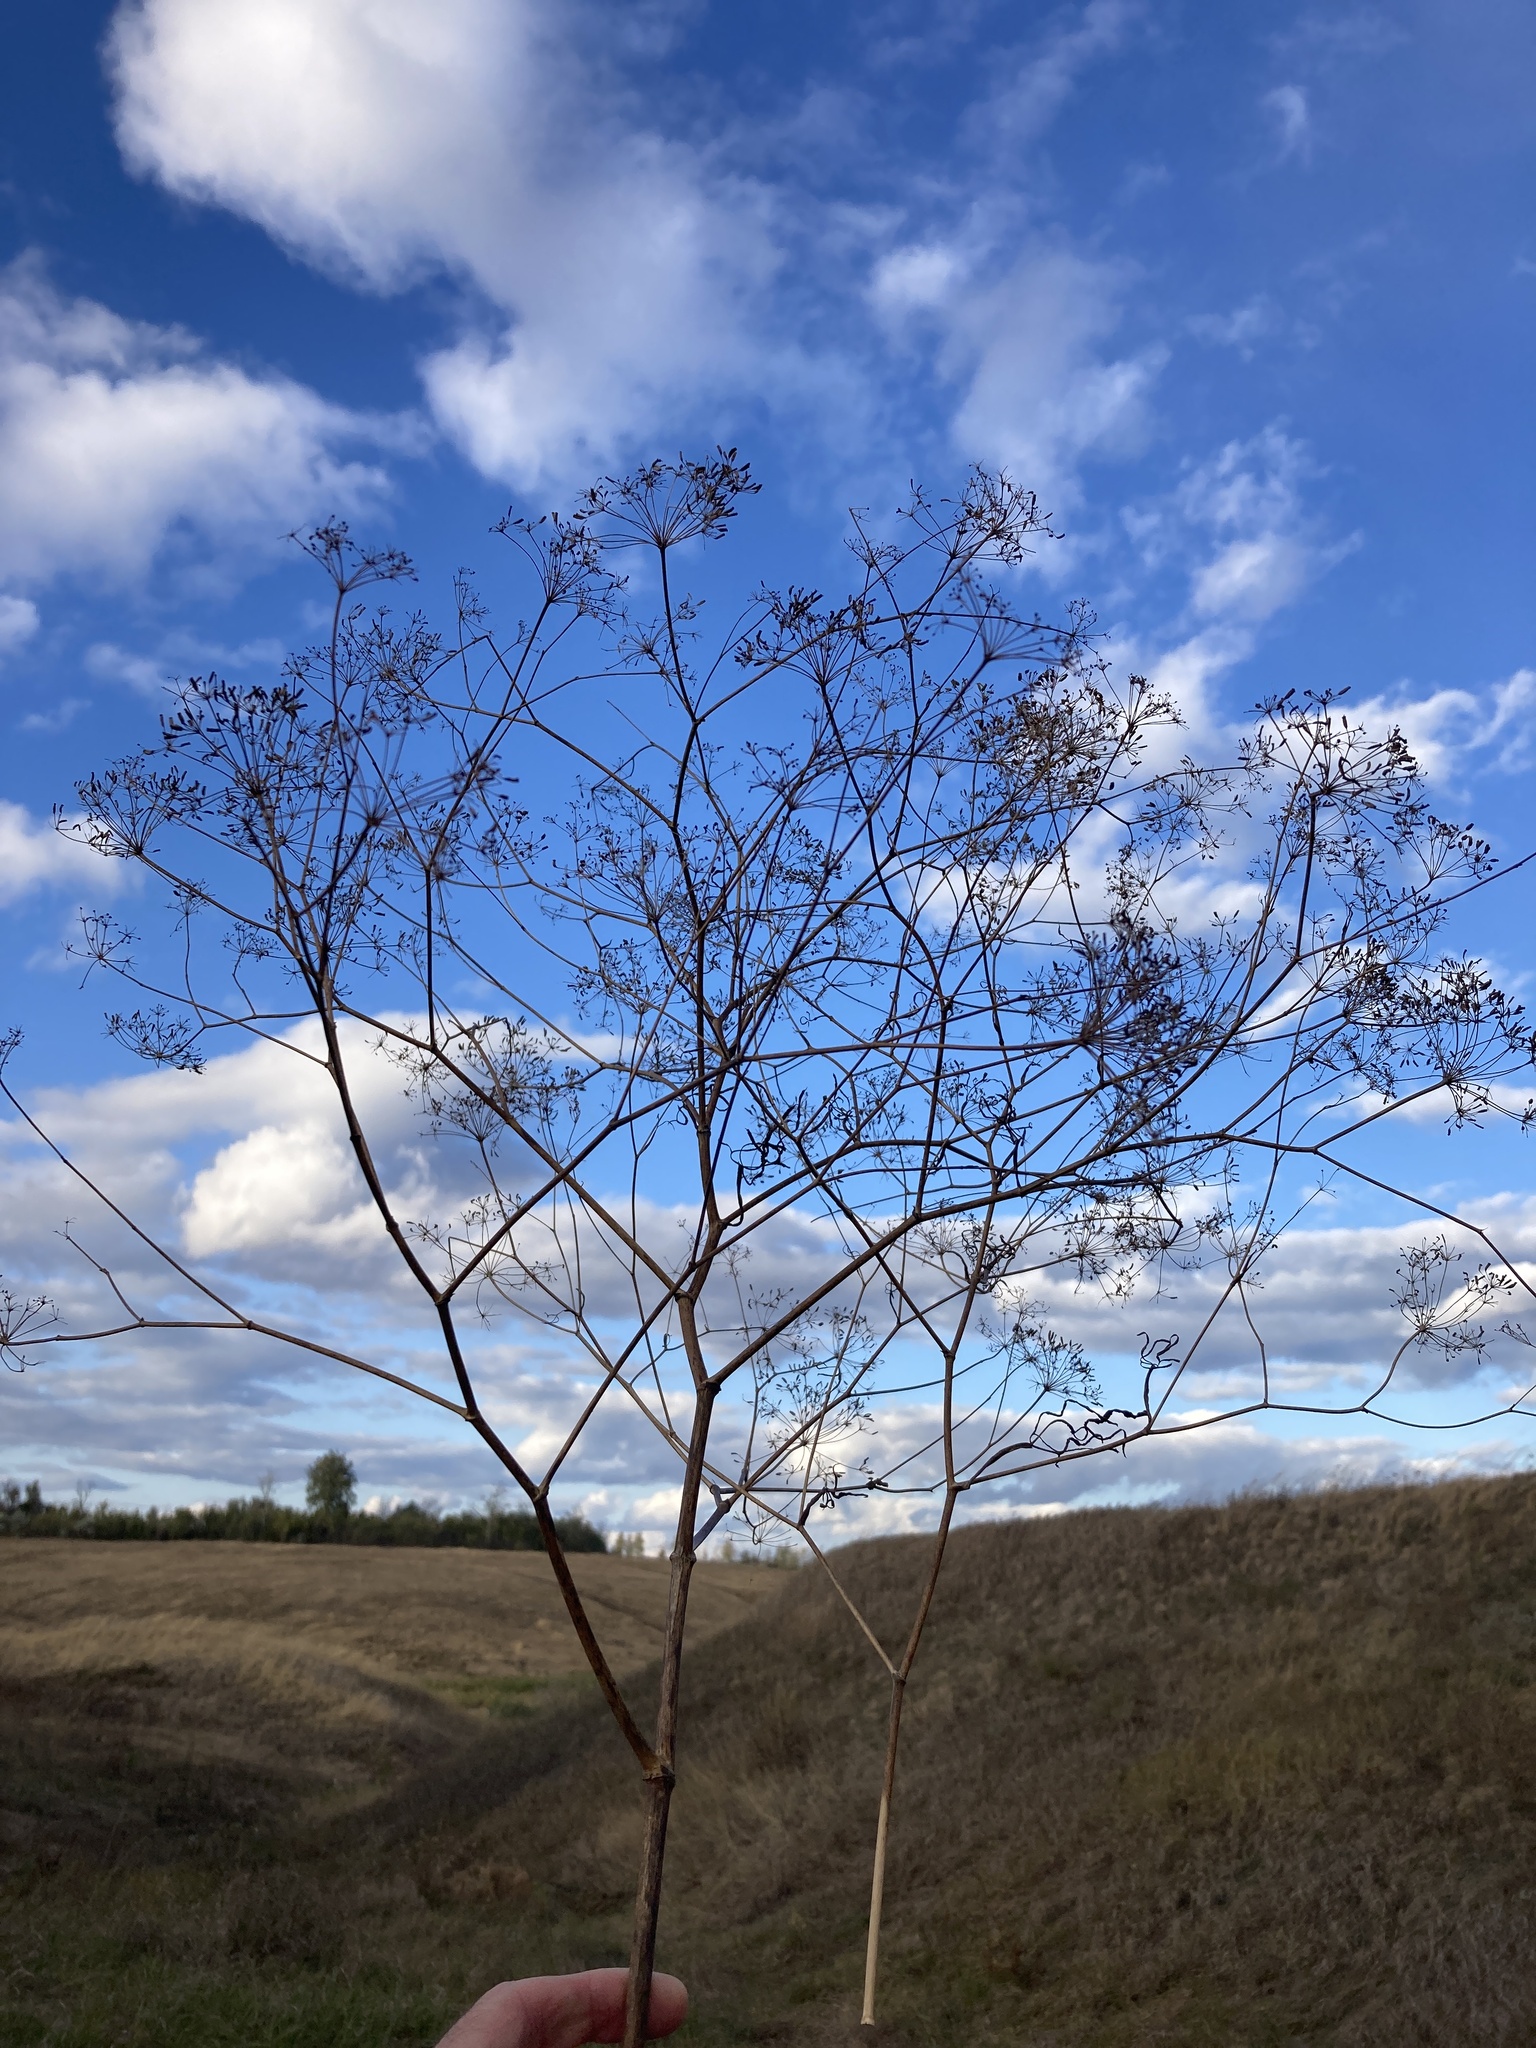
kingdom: Plantae
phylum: Tracheophyta
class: Magnoliopsida
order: Caryophyllales
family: Caryophyllaceae
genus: Gypsophila
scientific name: Gypsophila paniculata
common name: Baby's-breath
